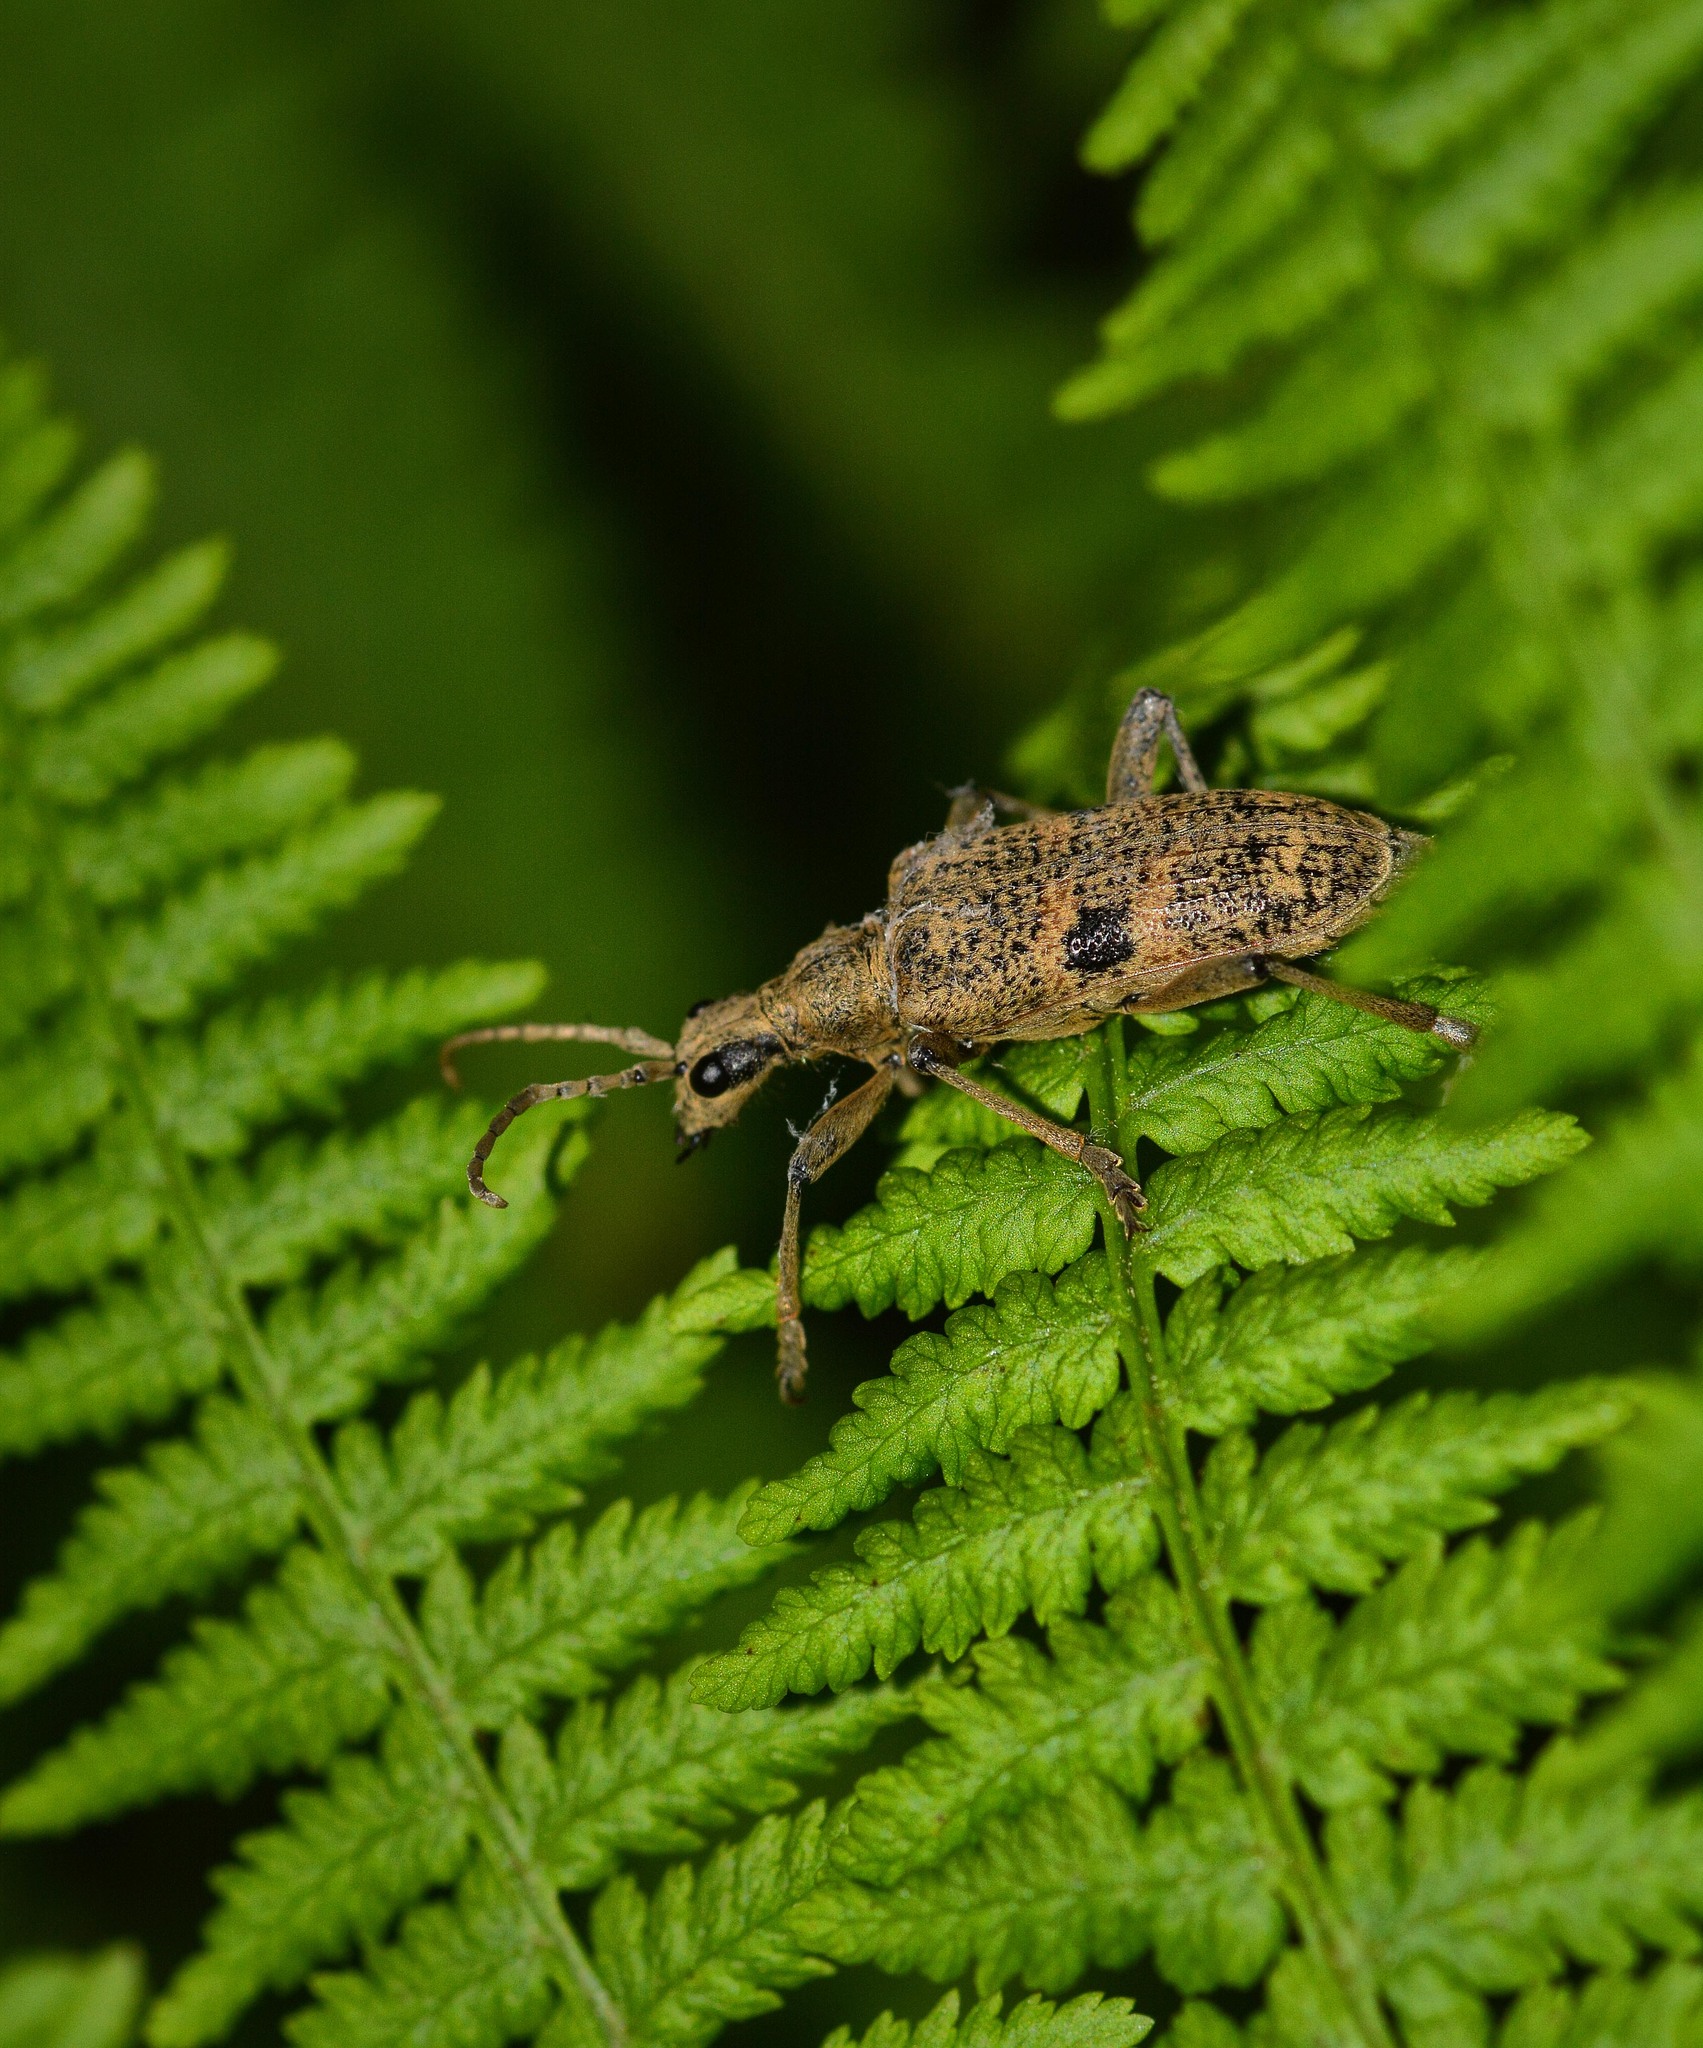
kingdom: Animalia
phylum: Arthropoda
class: Insecta
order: Coleoptera
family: Cerambycidae
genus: Rhagium
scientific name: Rhagium mordax
